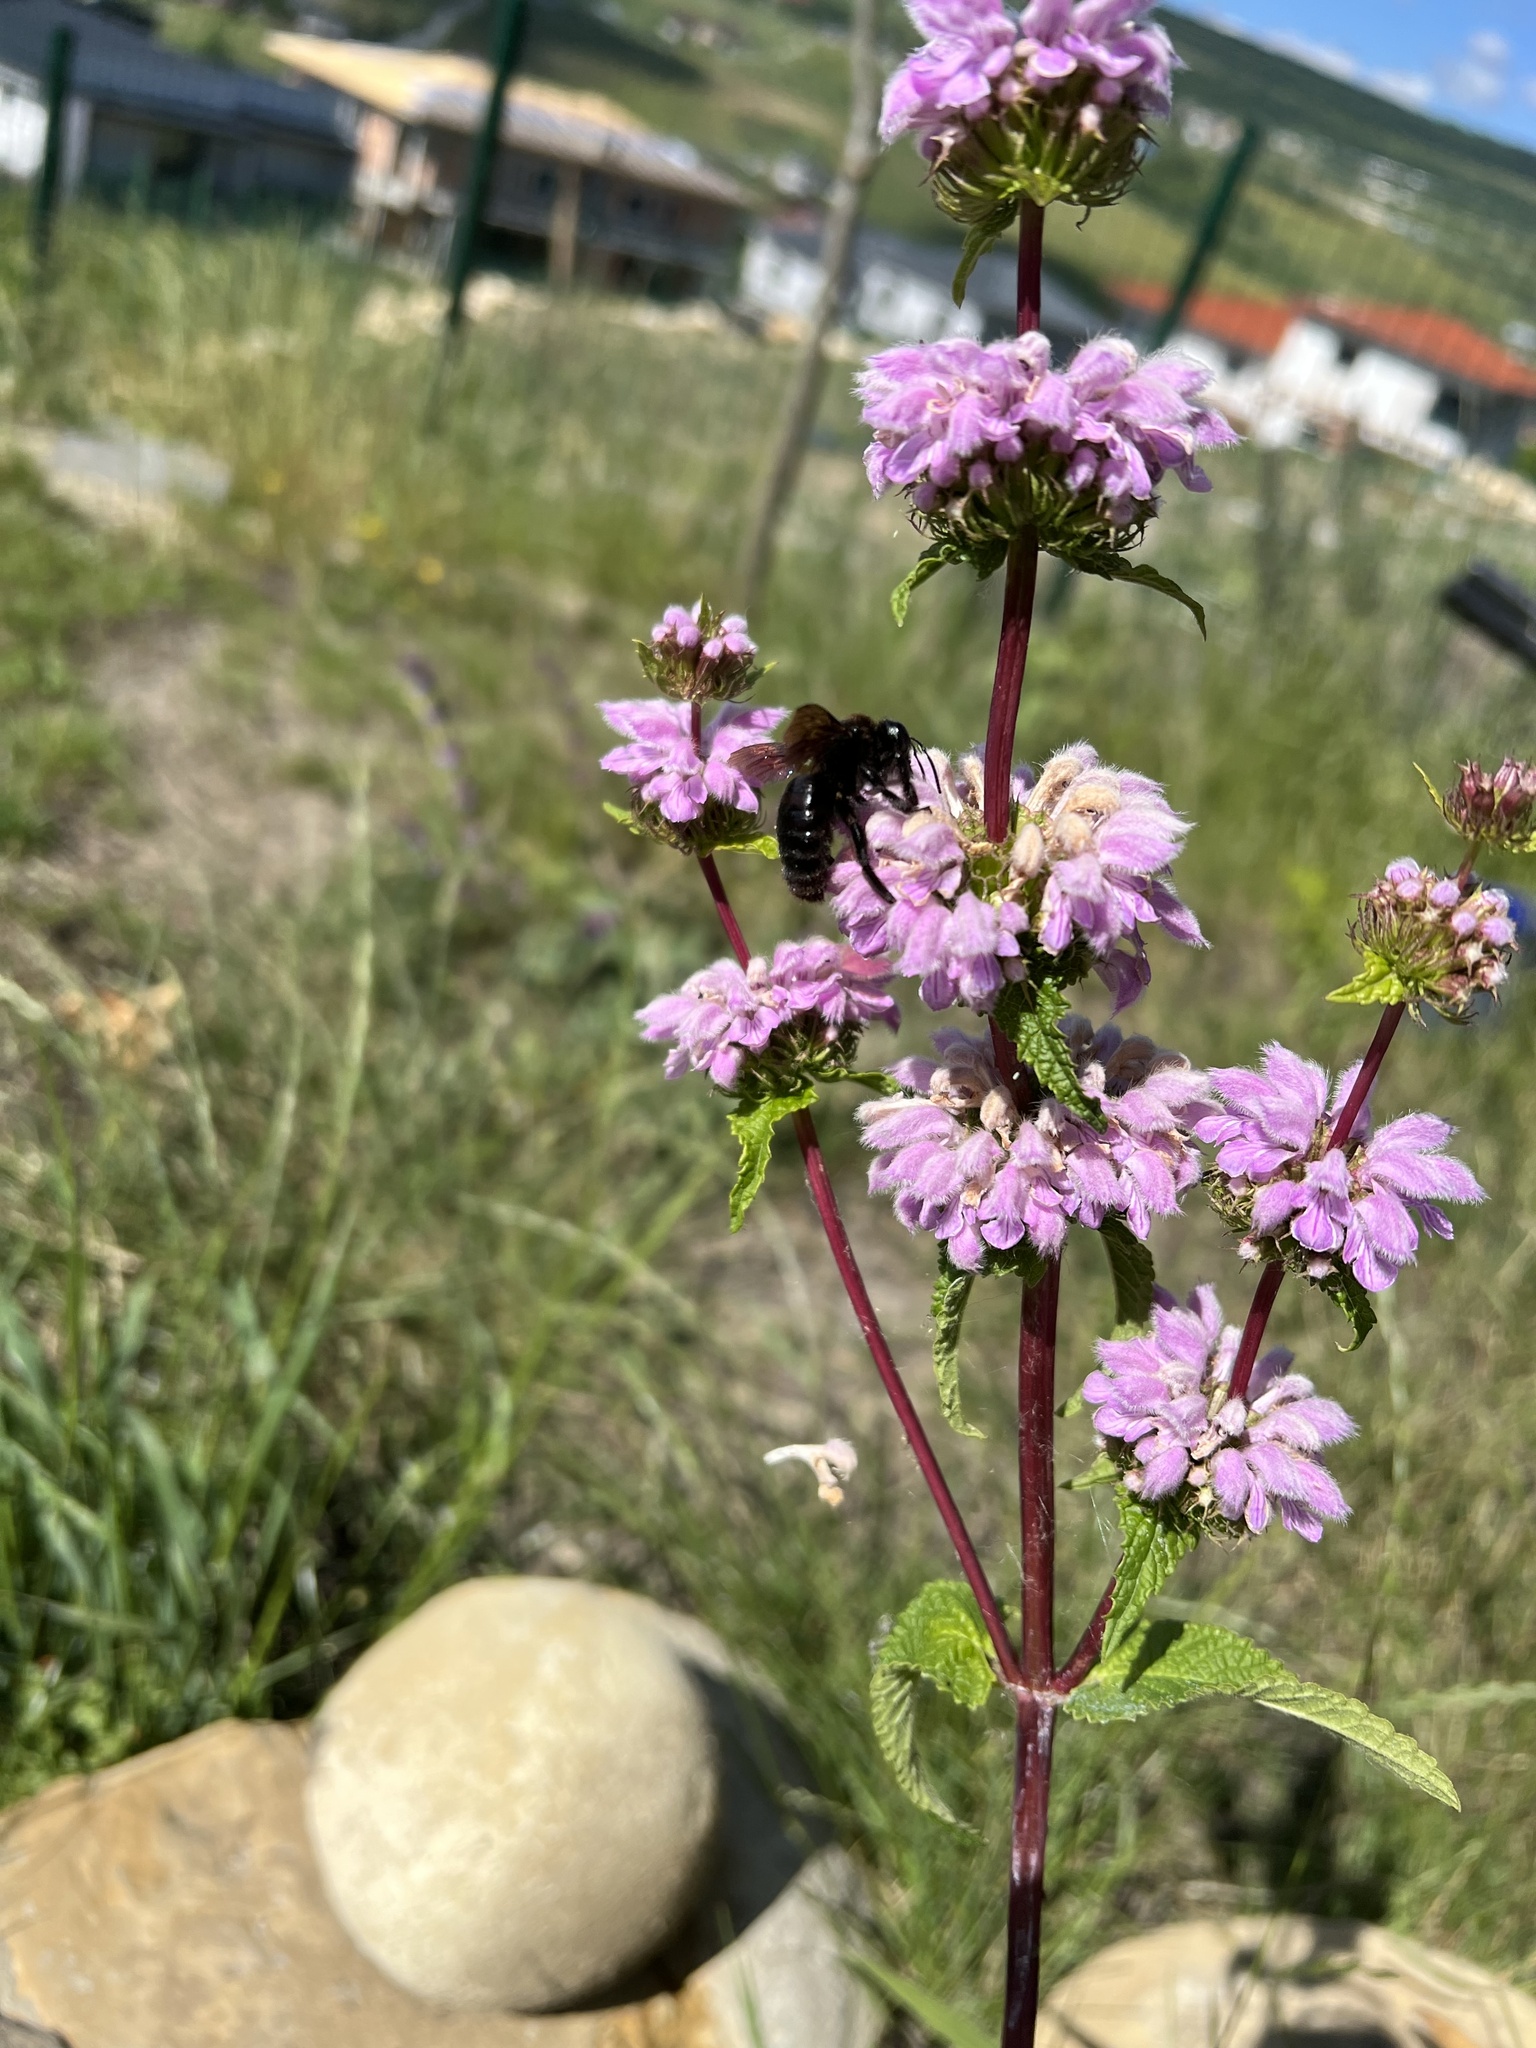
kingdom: Animalia
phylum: Arthropoda
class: Insecta
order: Hymenoptera
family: Apidae
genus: Xylocopa
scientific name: Xylocopa valga
